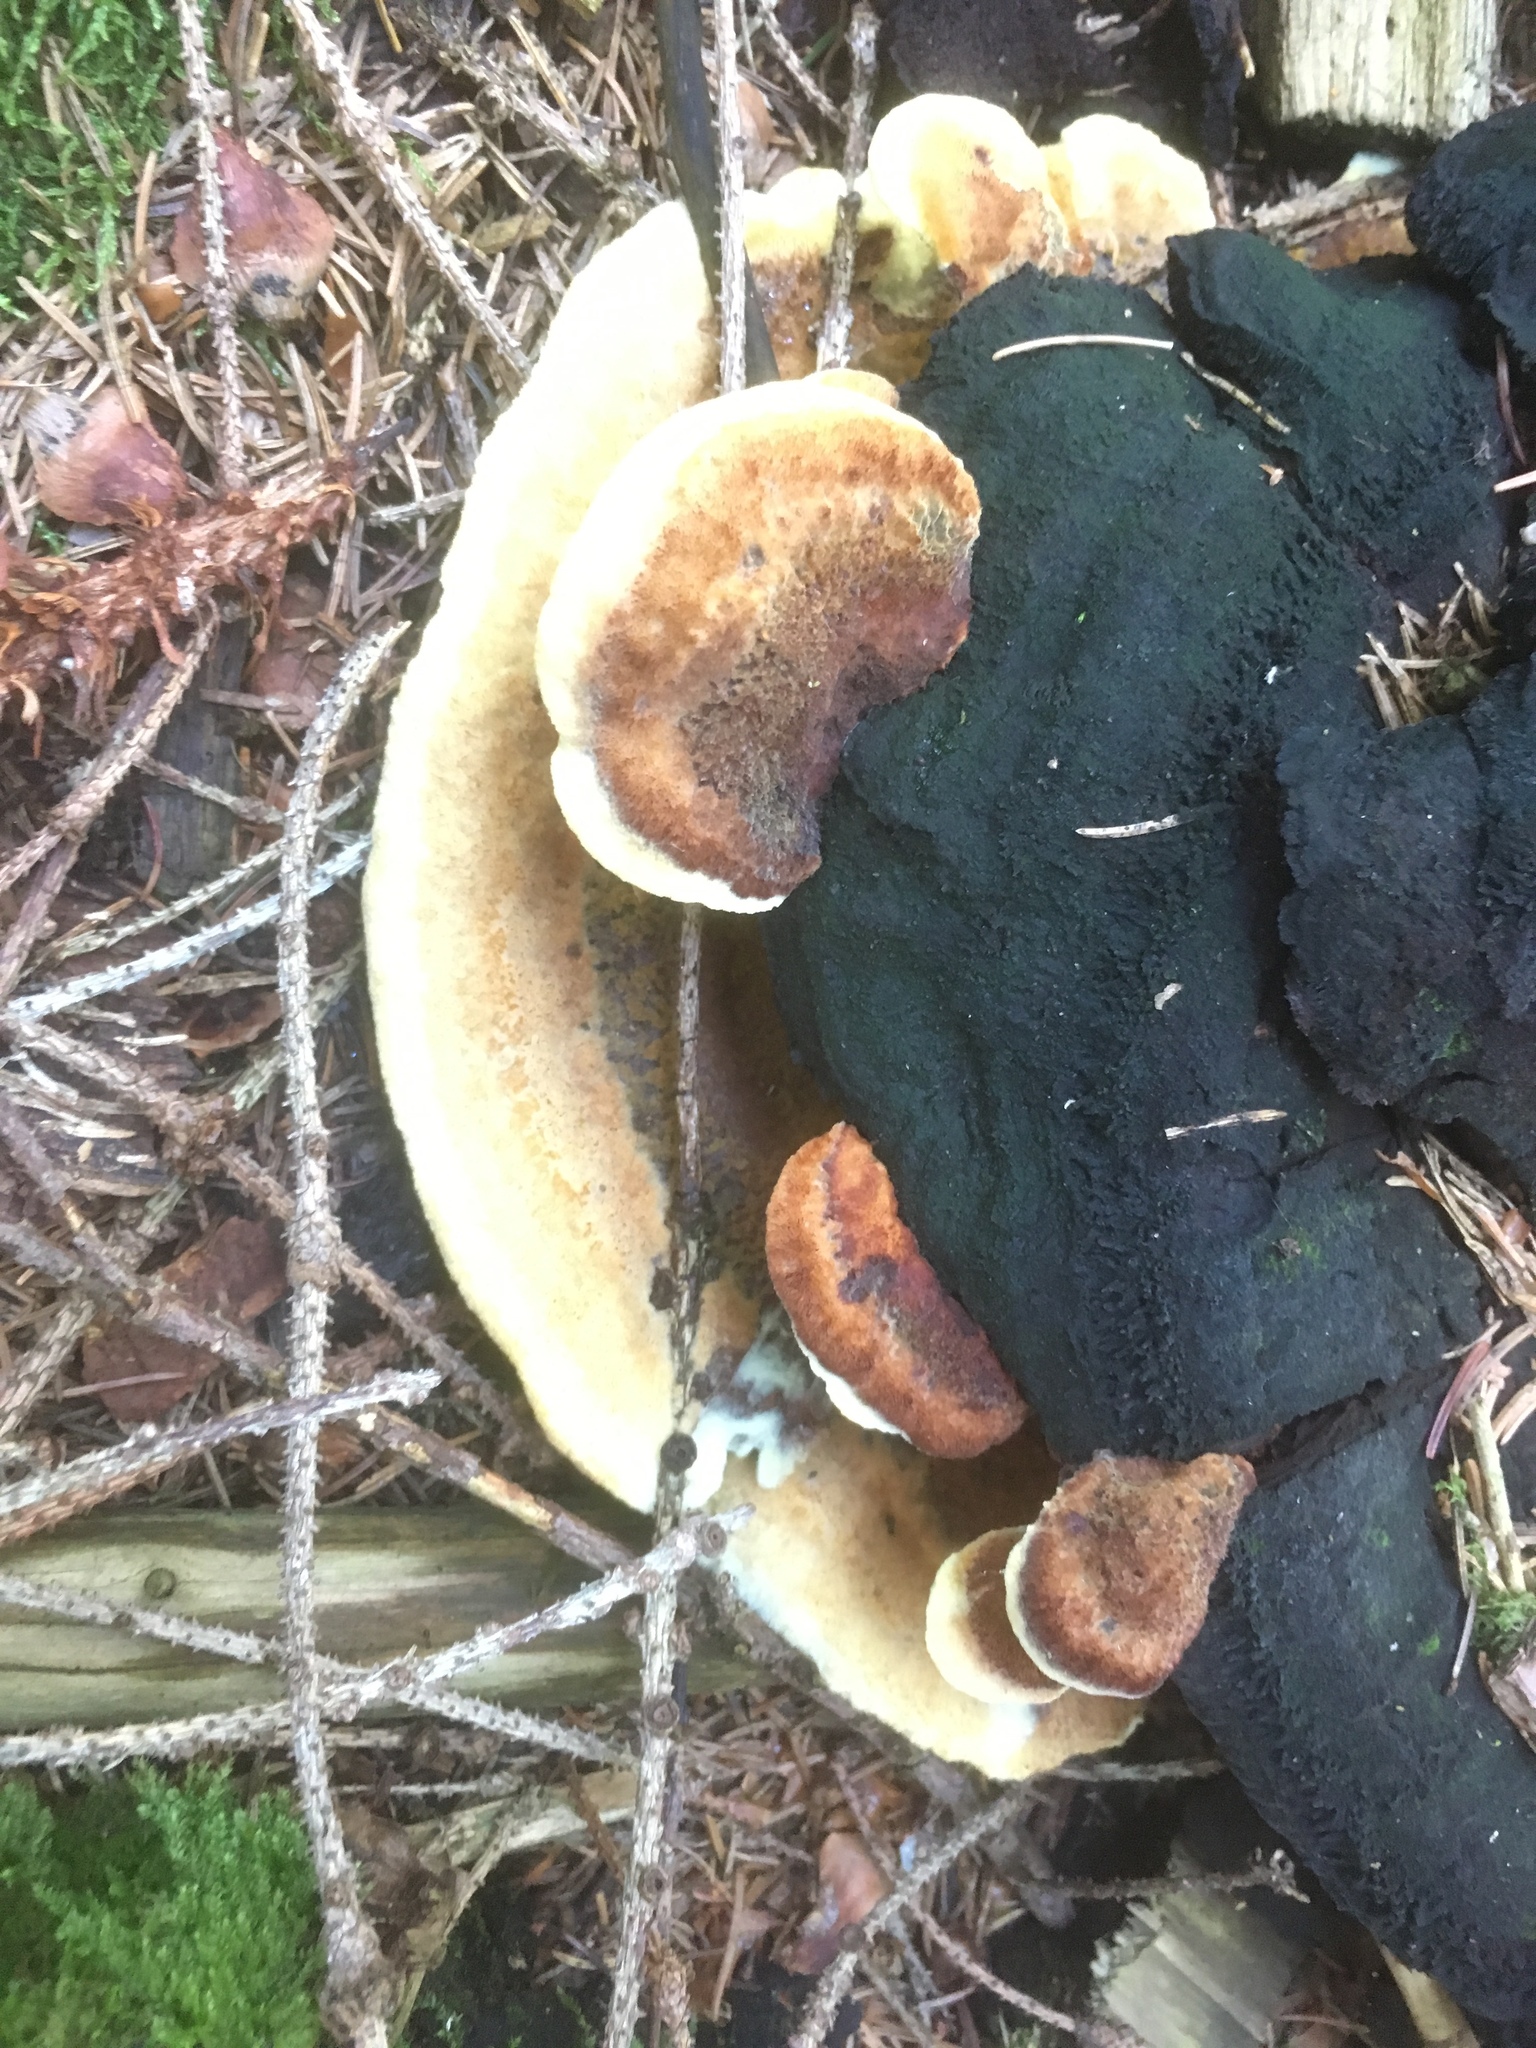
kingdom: Fungi
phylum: Basidiomycota
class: Agaricomycetes
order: Polyporales
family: Laetiporaceae
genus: Phaeolus
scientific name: Phaeolus schweinitzii
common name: Dyer's mazegill
